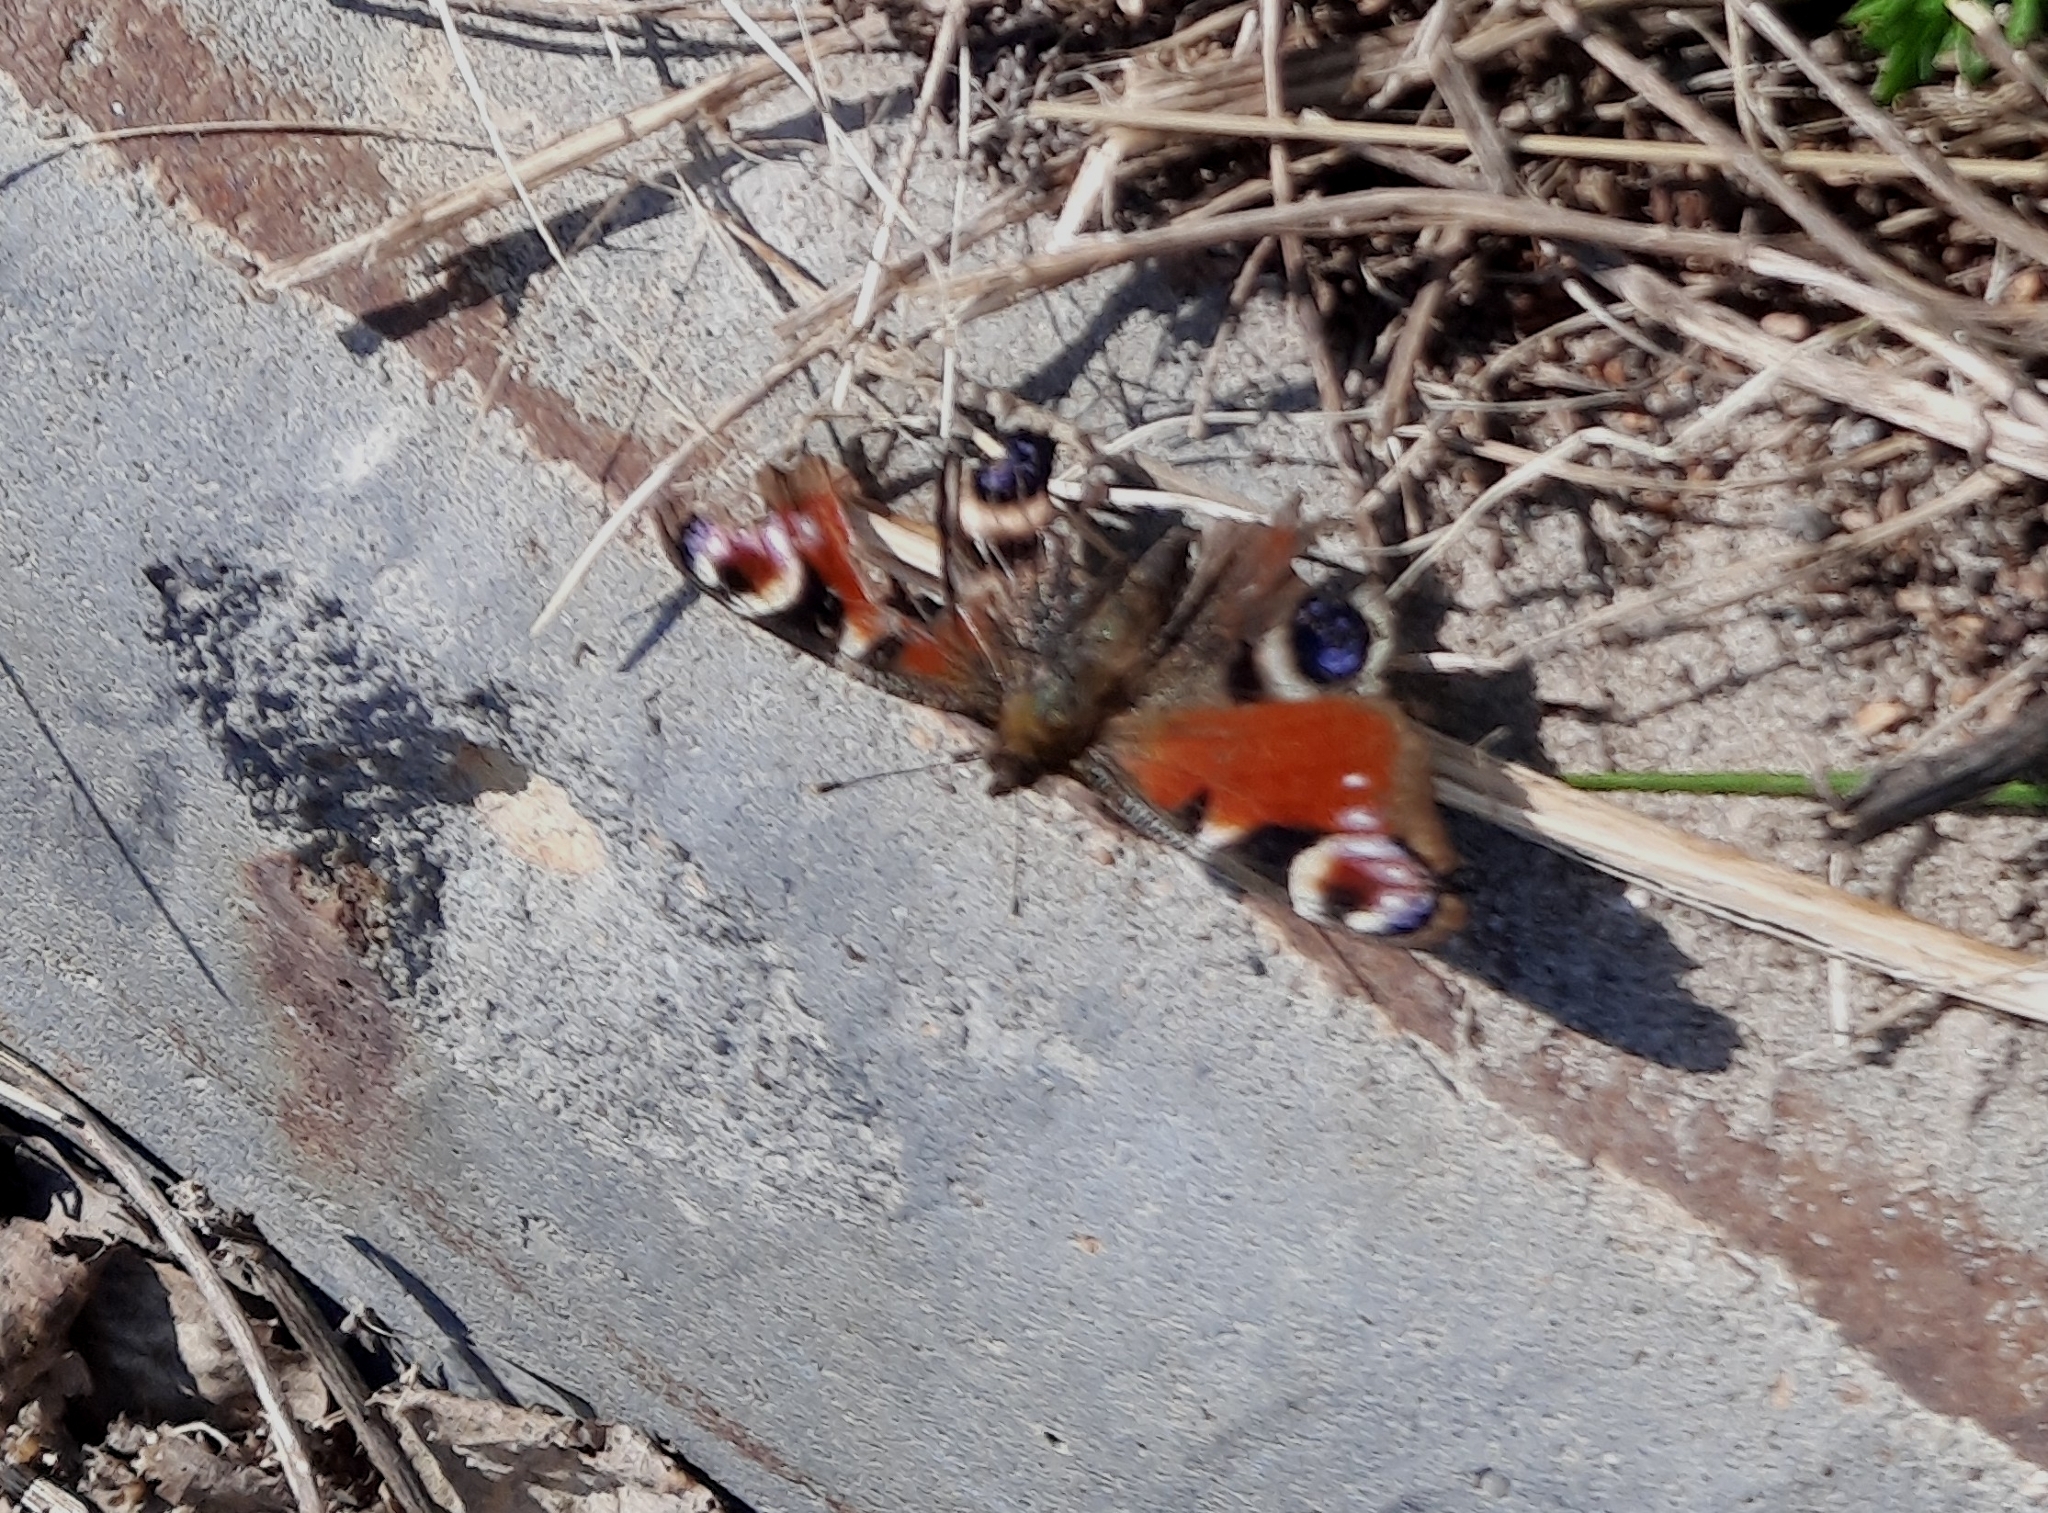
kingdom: Animalia
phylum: Arthropoda
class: Insecta
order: Lepidoptera
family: Nymphalidae
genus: Aglais
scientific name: Aglais io
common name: Peacock
